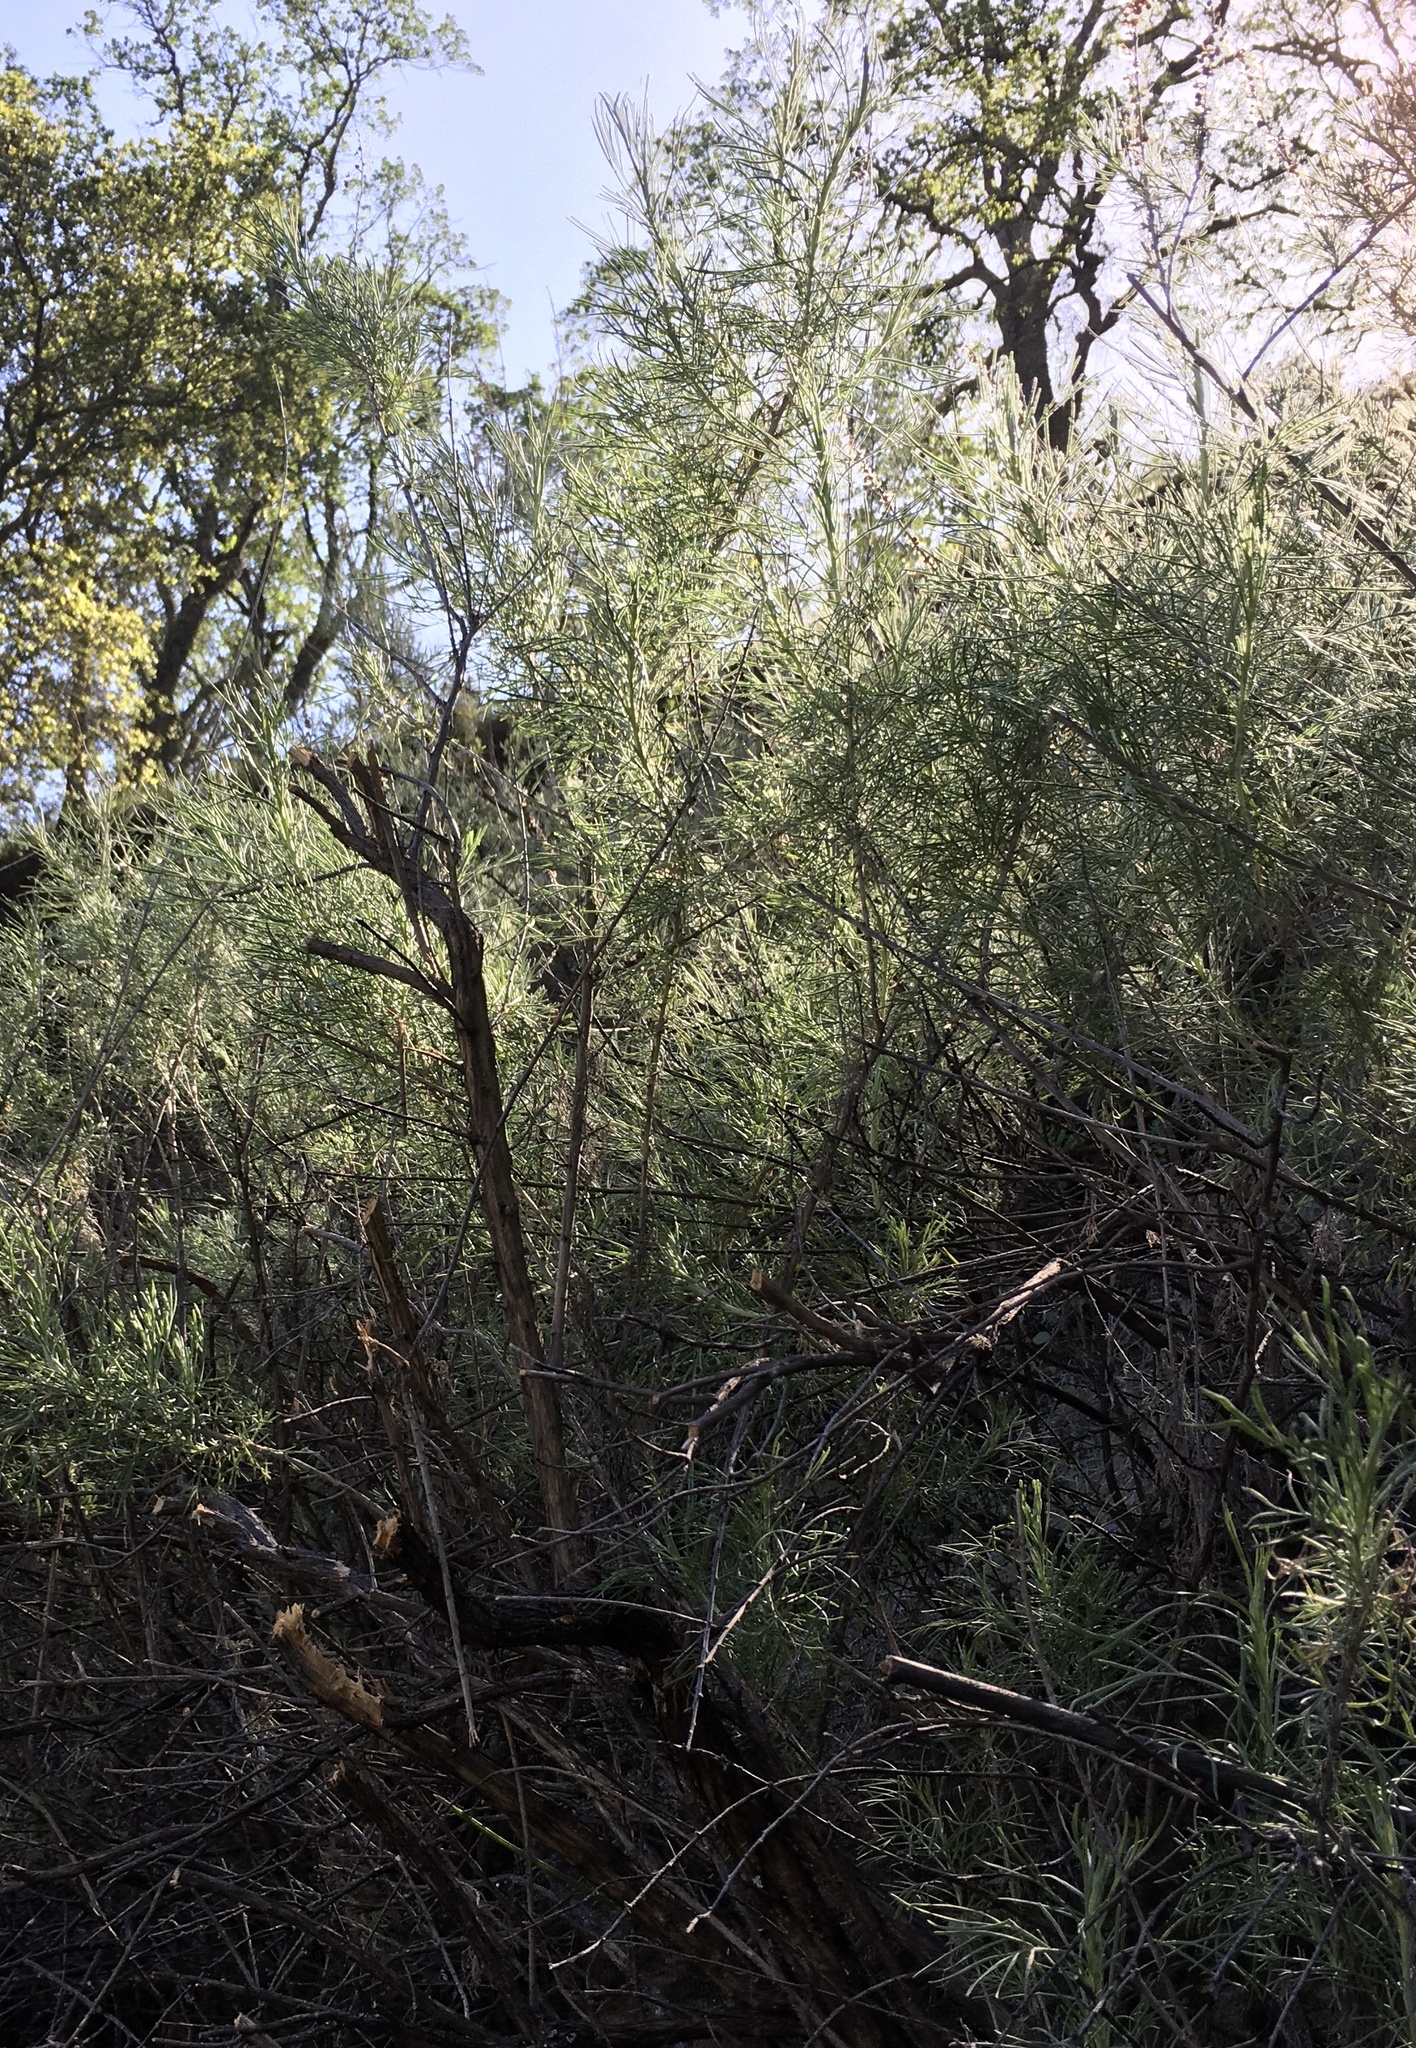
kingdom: Plantae
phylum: Tracheophyta
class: Magnoliopsida
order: Asterales
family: Asteraceae
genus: Artemisia
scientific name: Artemisia californica
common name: California sagebrush
